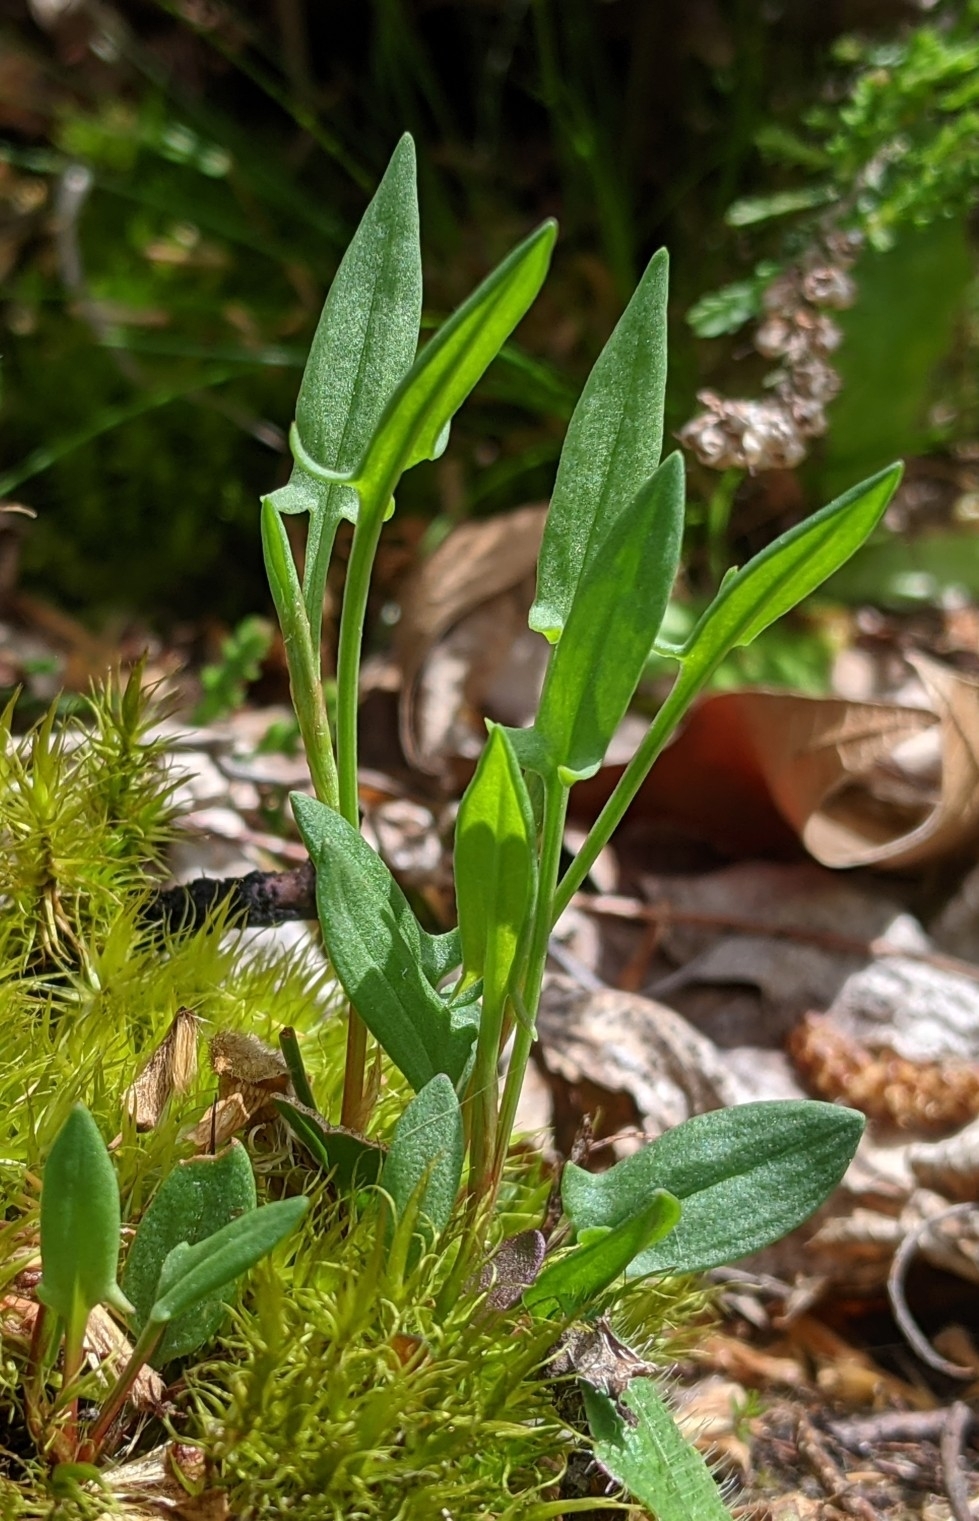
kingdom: Plantae
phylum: Tracheophyta
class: Magnoliopsida
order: Caryophyllales
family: Polygonaceae
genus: Rumex
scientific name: Rumex acetosella
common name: Common sheep sorrel
